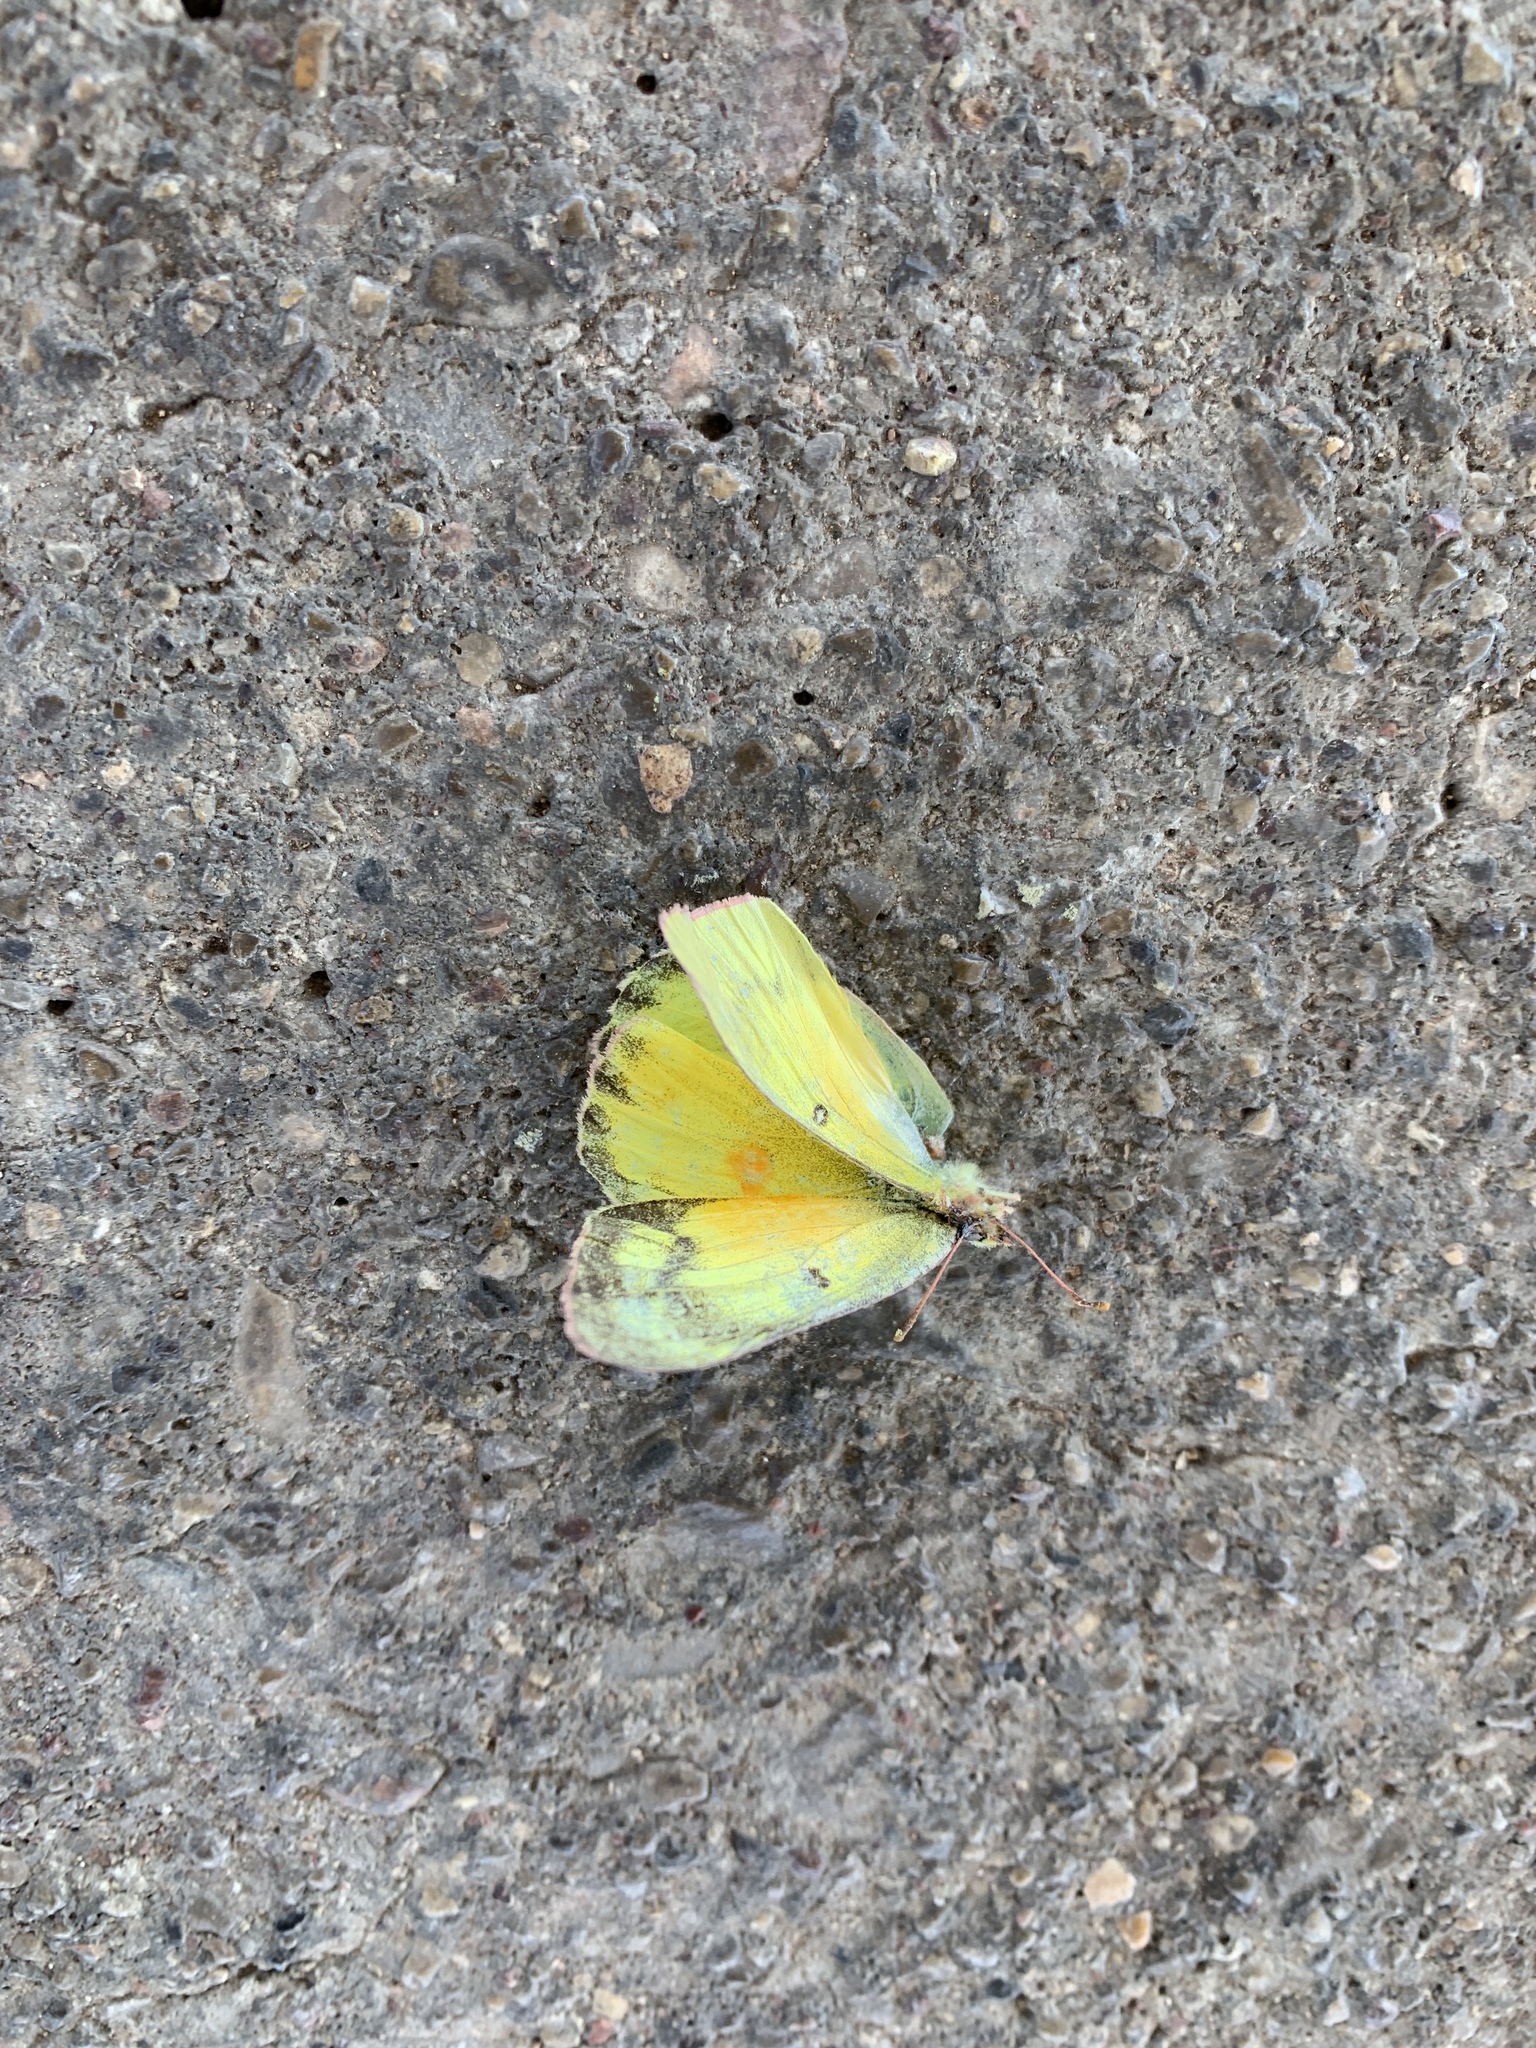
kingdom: Animalia
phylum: Arthropoda
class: Insecta
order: Lepidoptera
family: Pieridae
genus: Colias
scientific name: Colias eurytheme
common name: Alfalfa butterfly
